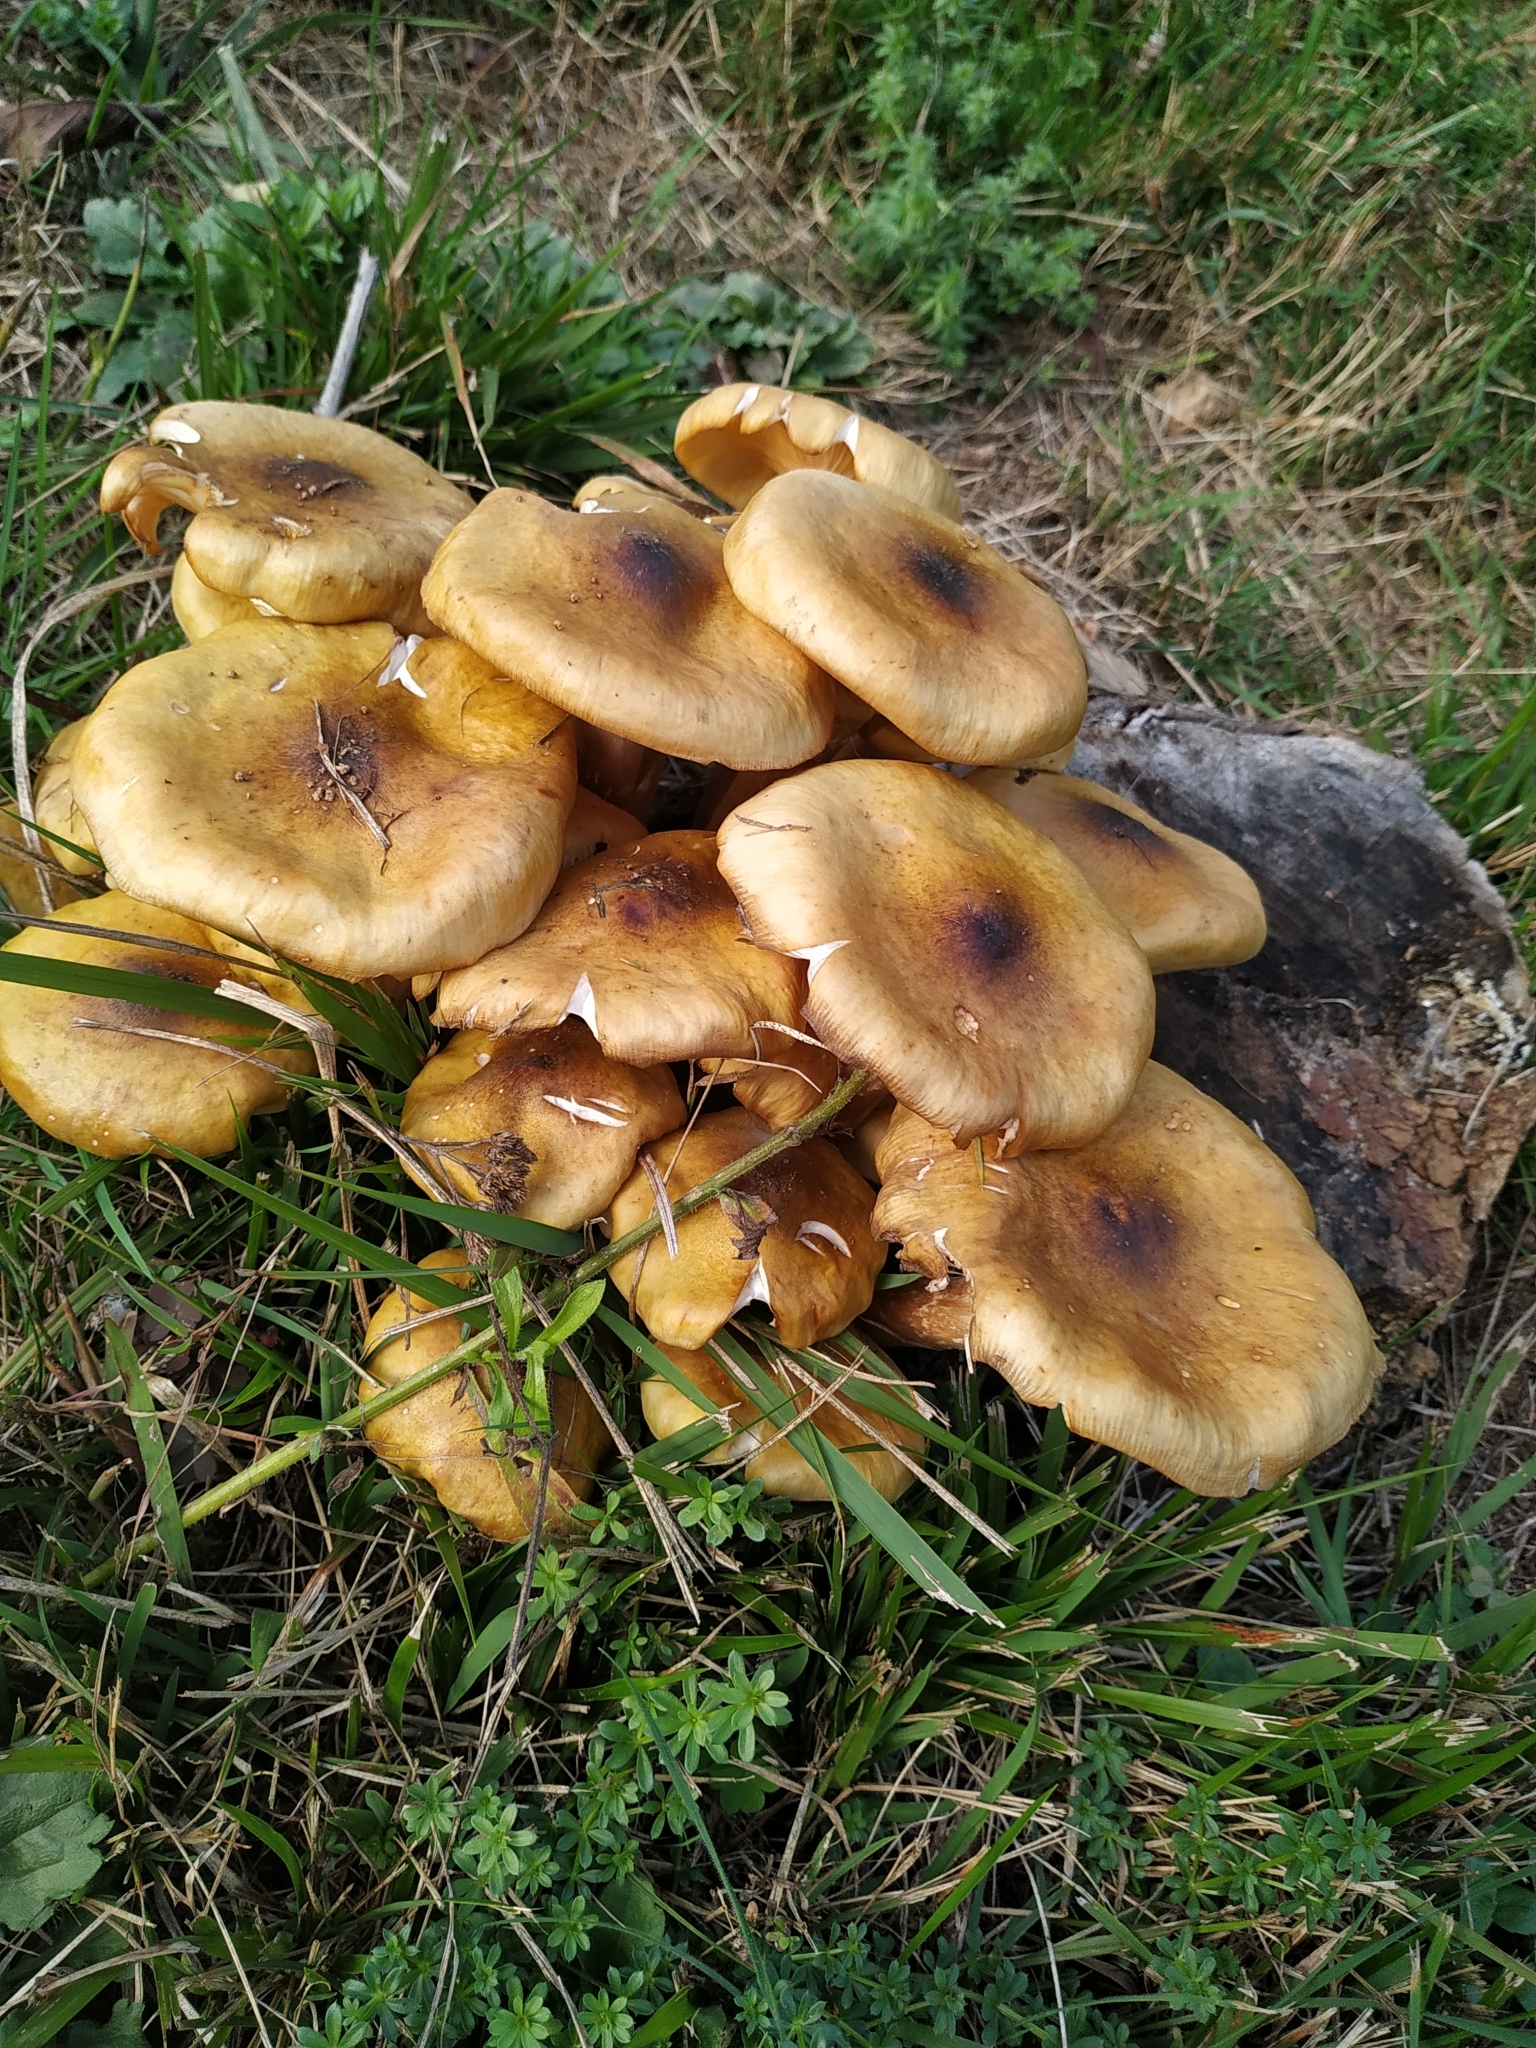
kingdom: Fungi
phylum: Basidiomycota
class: Agaricomycetes
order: Agaricales
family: Physalacriaceae
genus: Armillaria
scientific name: Armillaria mellea
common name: Honey fungus
